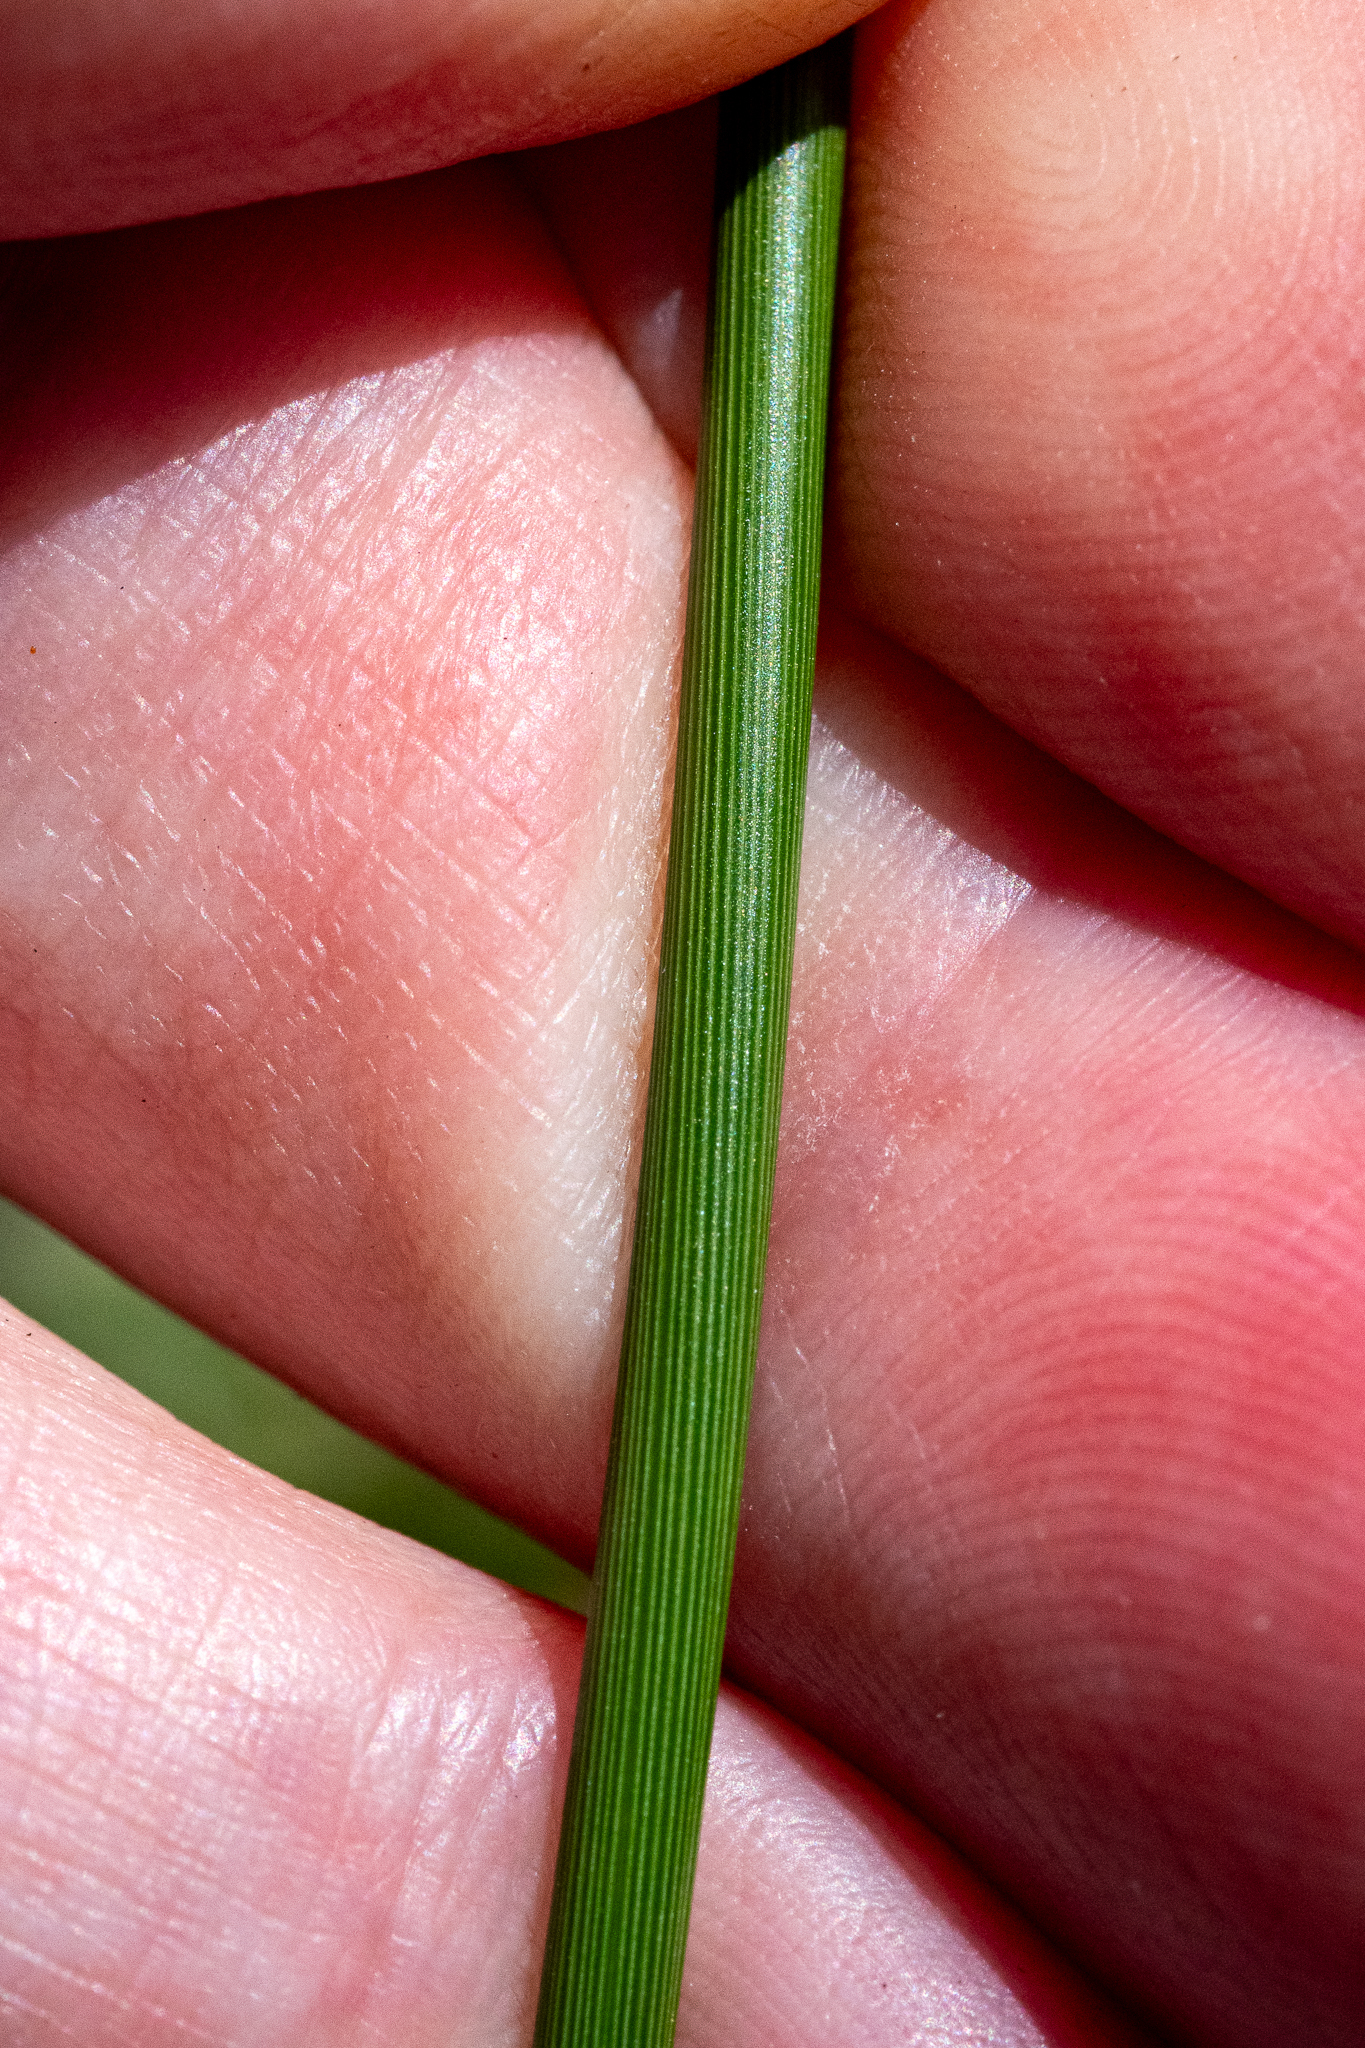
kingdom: Plantae
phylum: Tracheophyta
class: Liliopsida
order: Asparagales
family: Iridaceae
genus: Bobartia
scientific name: Bobartia indica
